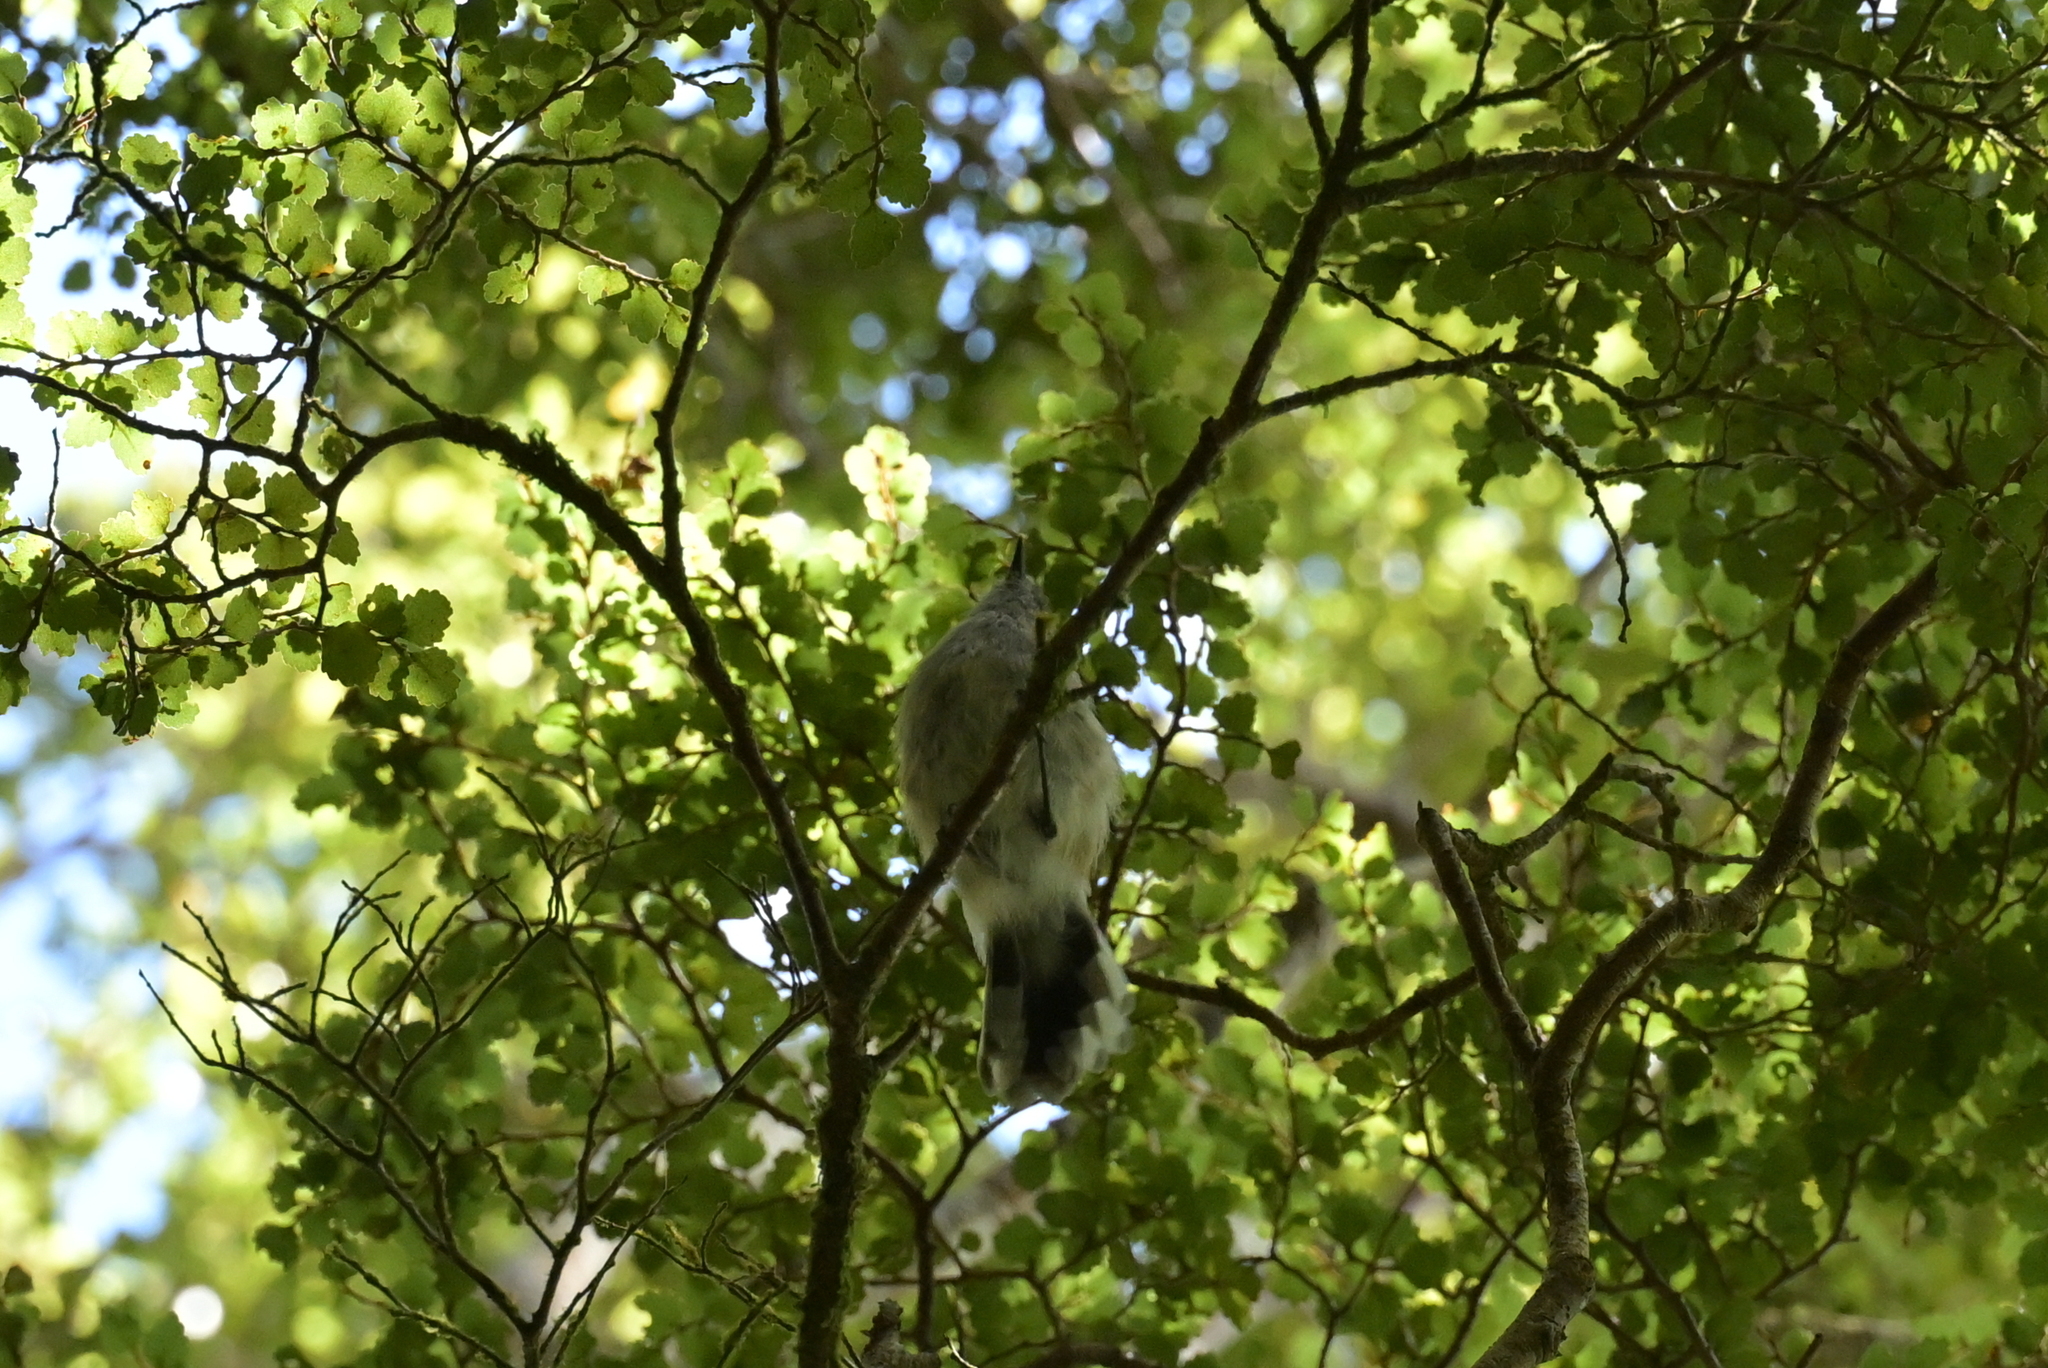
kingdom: Animalia
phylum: Chordata
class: Aves
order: Passeriformes
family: Acanthizidae
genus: Gerygone
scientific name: Gerygone igata
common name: Grey gerygone
